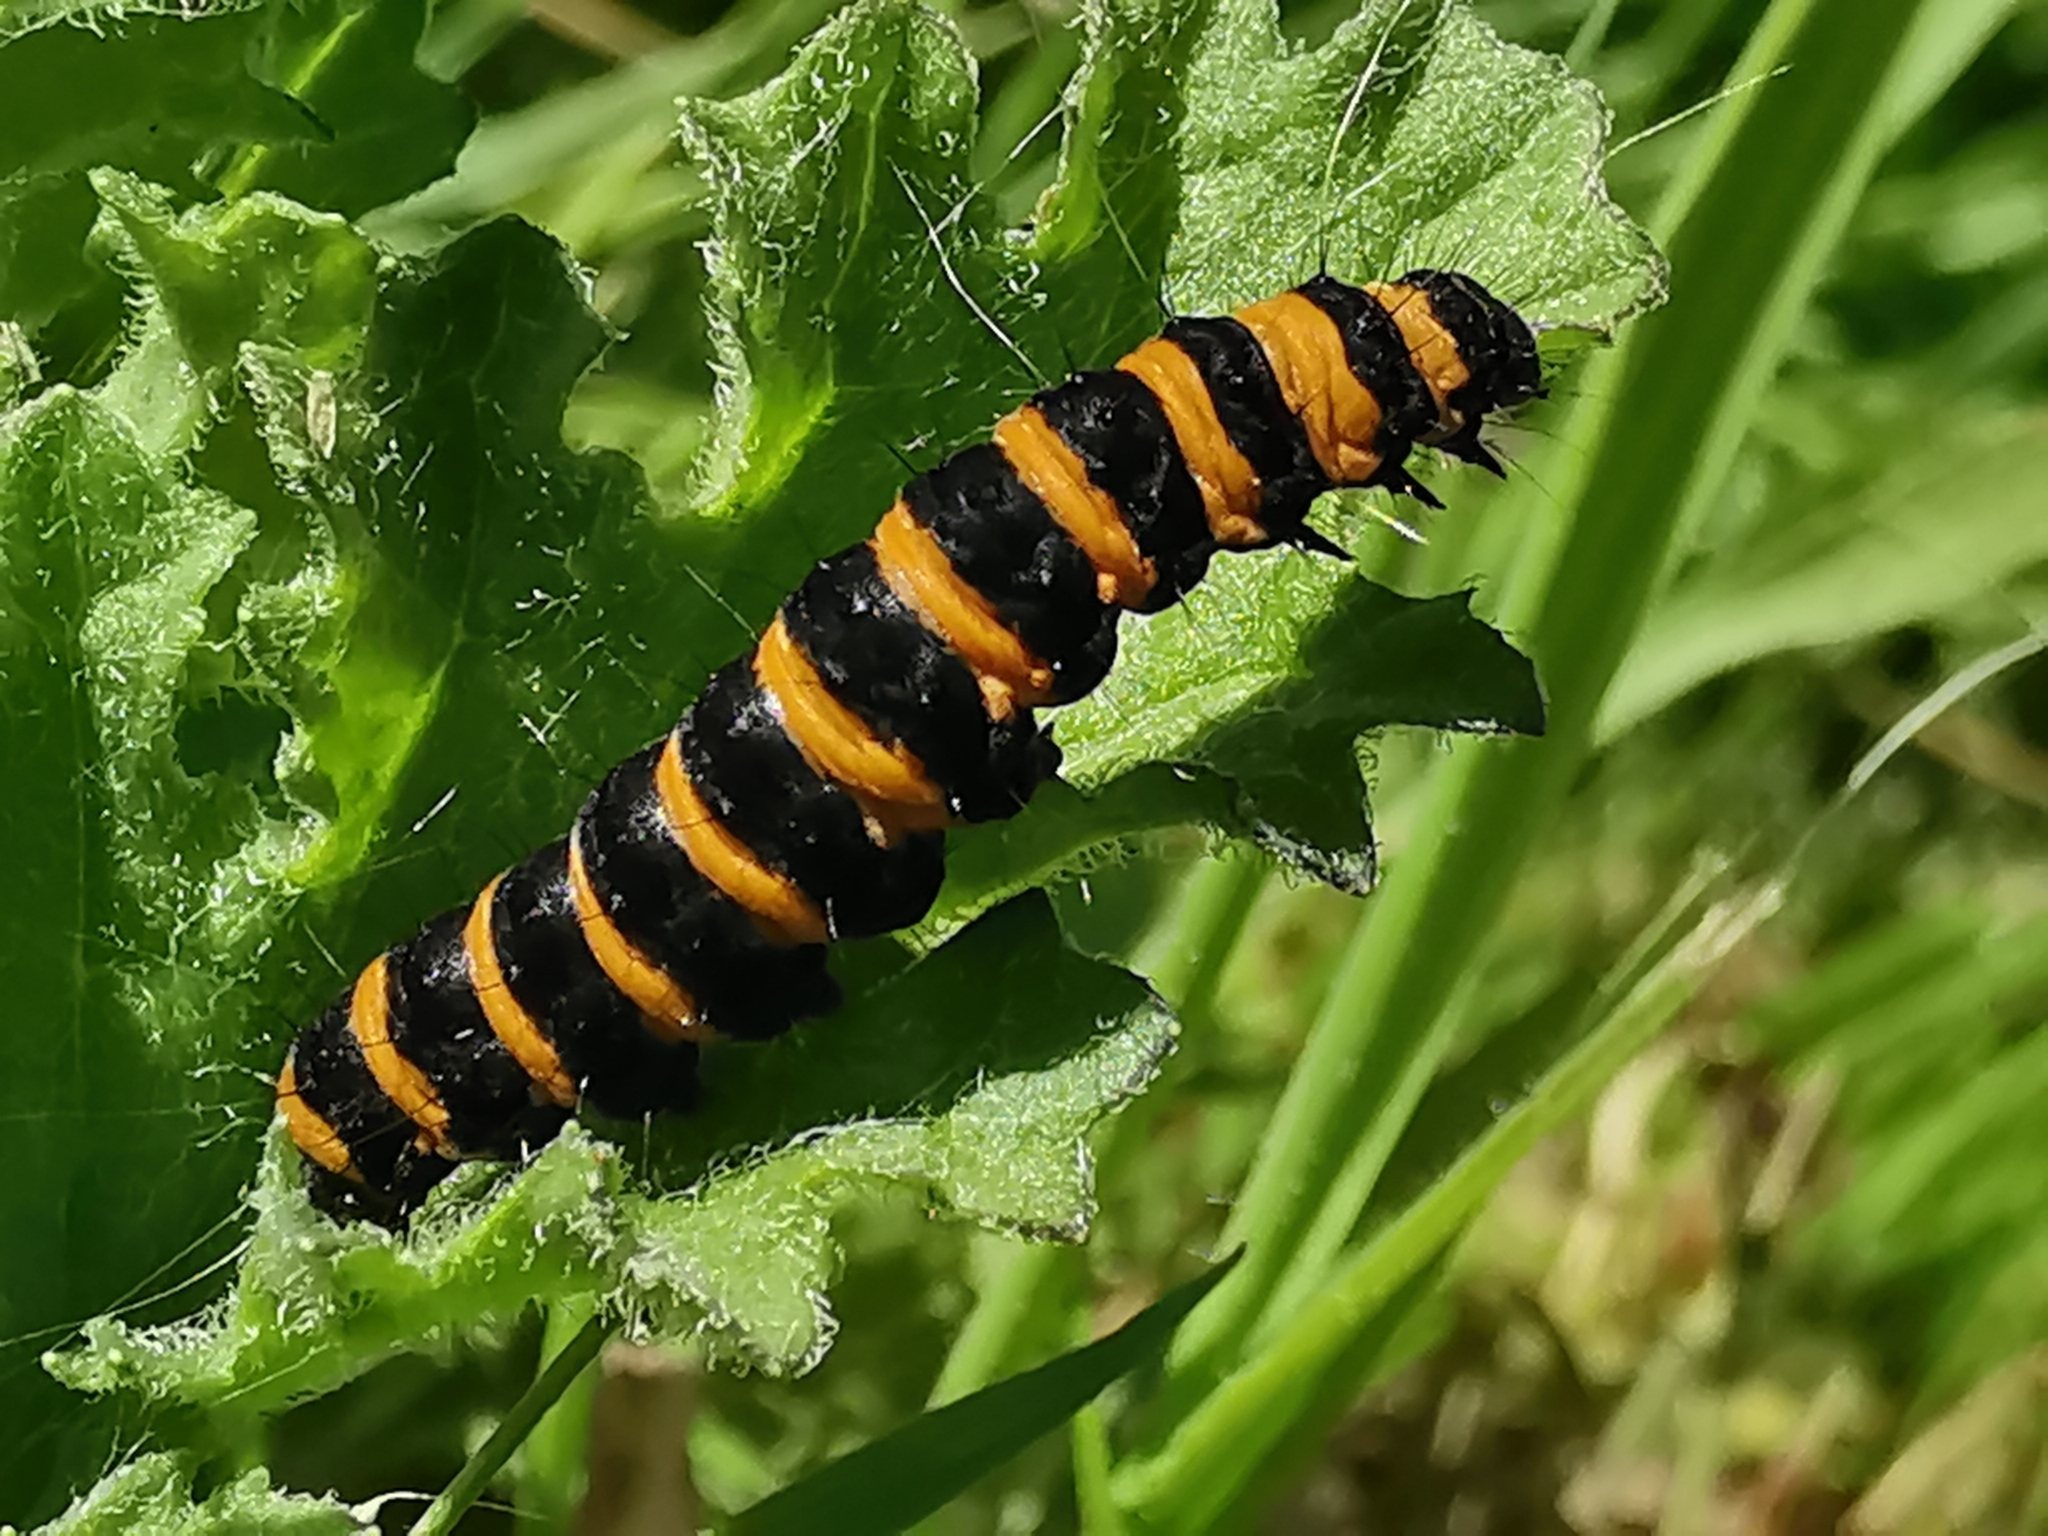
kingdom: Animalia
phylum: Arthropoda
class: Insecta
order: Lepidoptera
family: Erebidae
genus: Tyria
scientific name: Tyria jacobaeae
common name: Cinnabar
